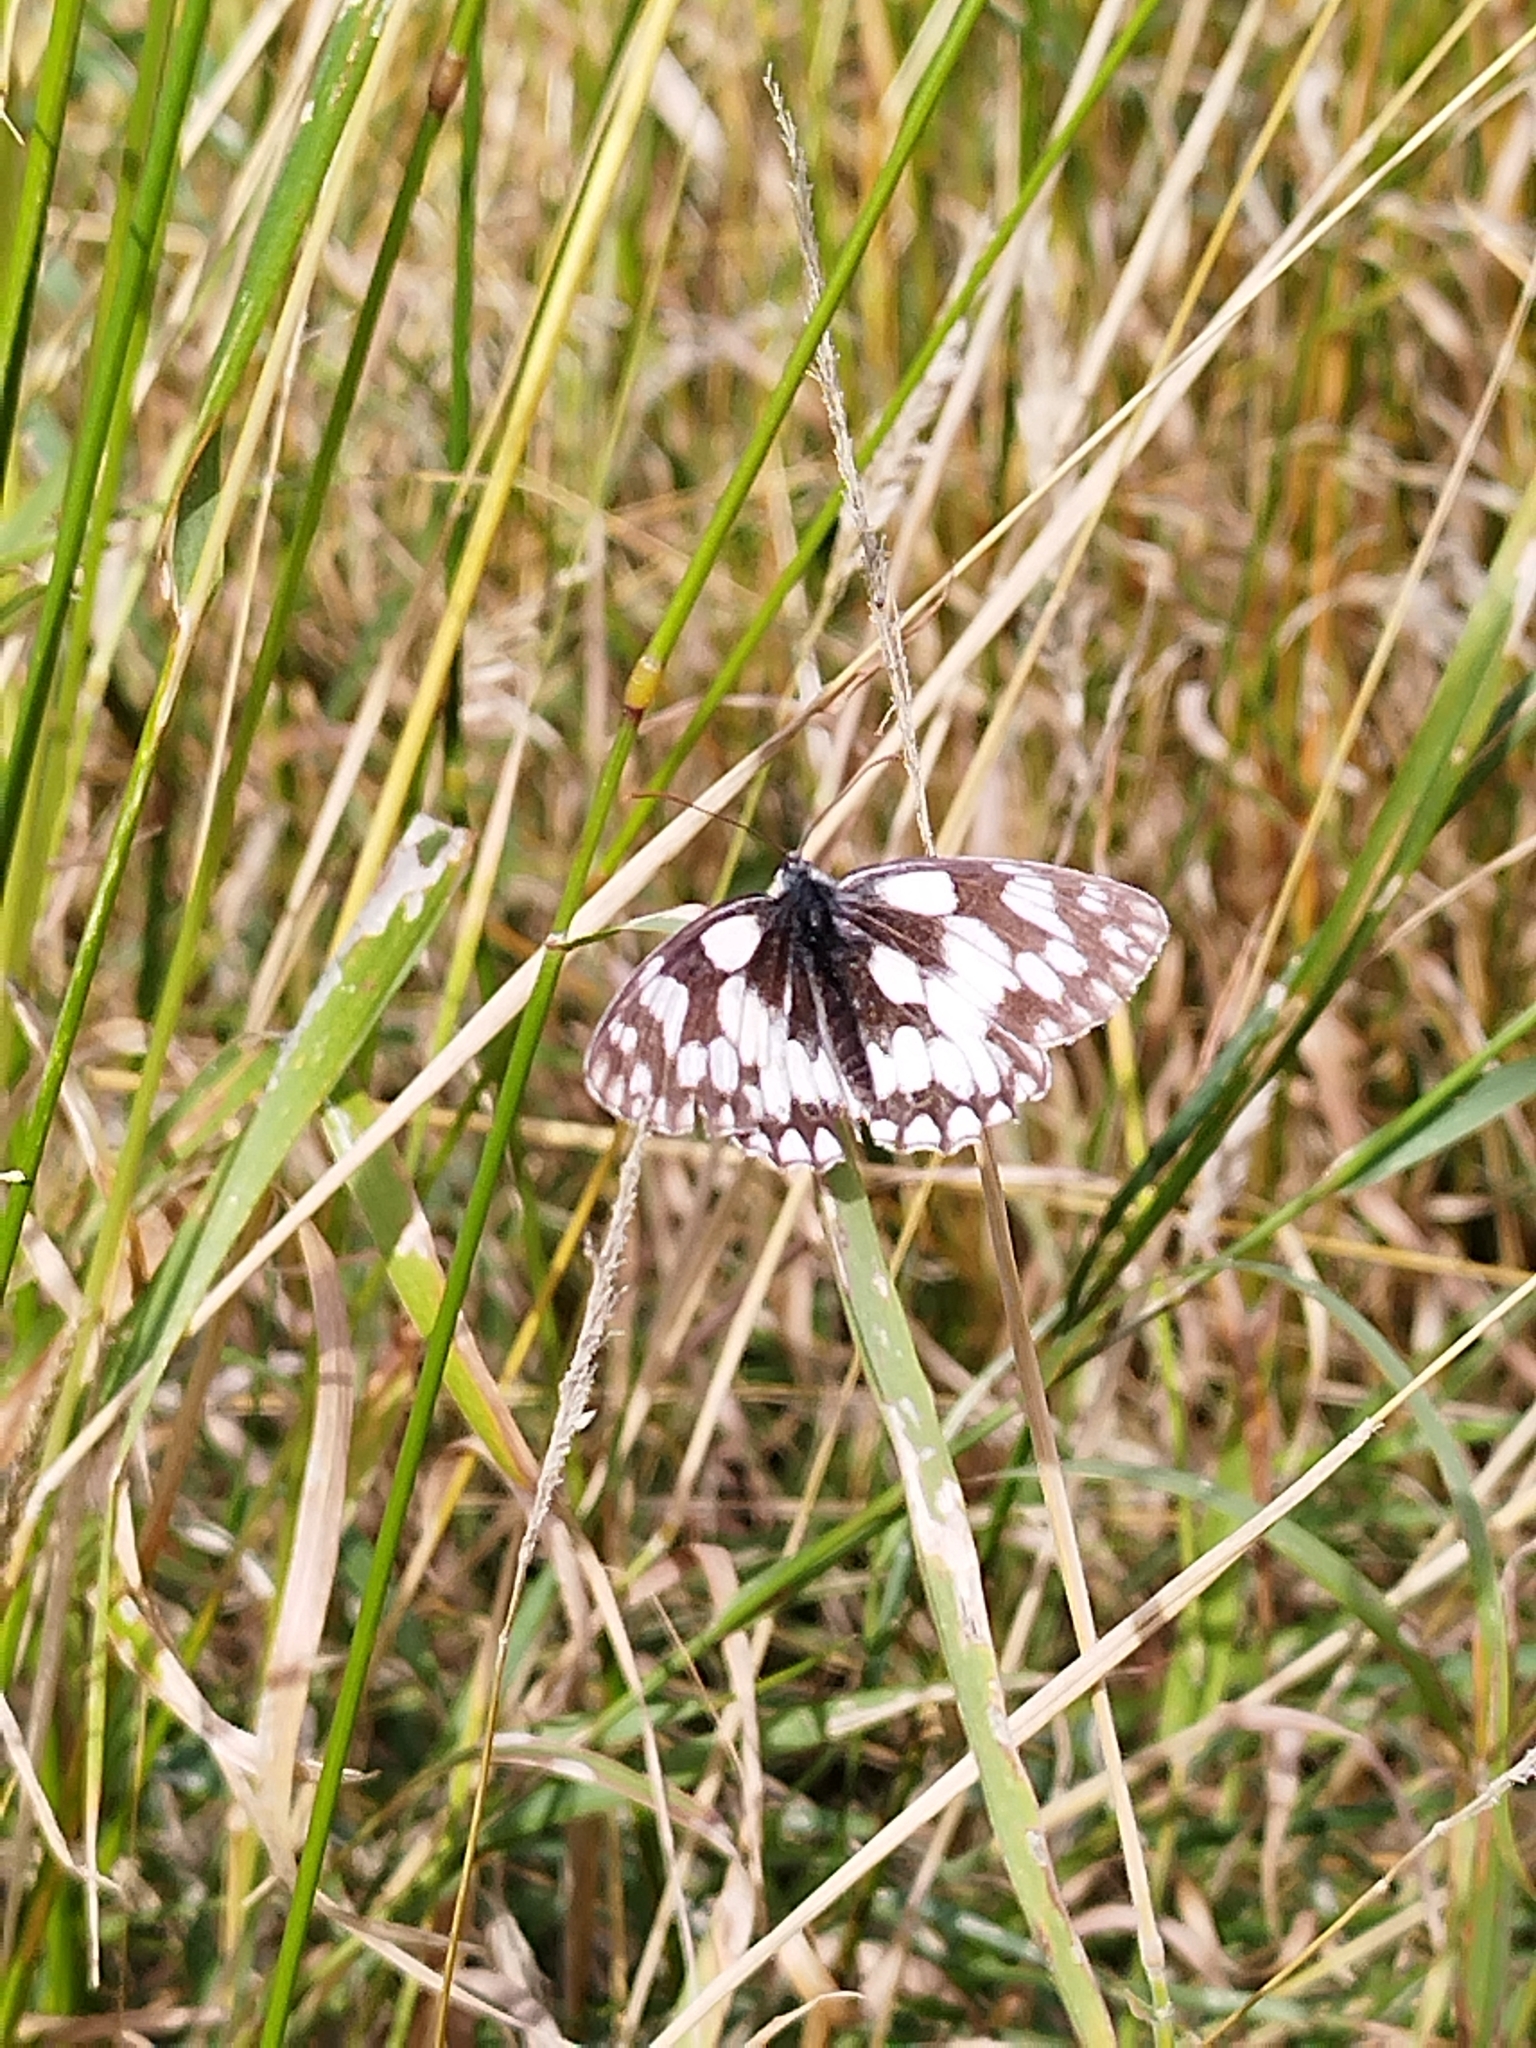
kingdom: Animalia
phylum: Arthropoda
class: Insecta
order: Lepidoptera
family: Nymphalidae
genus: Melanargia
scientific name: Melanargia galathea
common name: Marbled white
